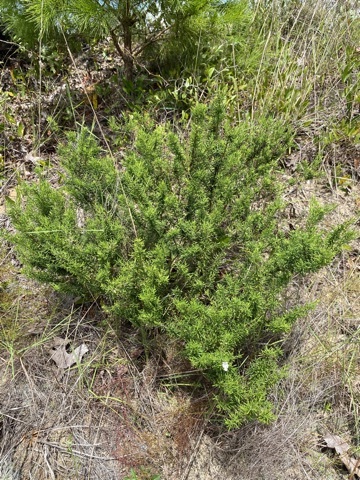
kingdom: Plantae
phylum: Tracheophyta
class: Magnoliopsida
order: Lamiales
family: Lamiaceae
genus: Conradina
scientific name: Conradina glabra
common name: Apalachicola-rosemary
